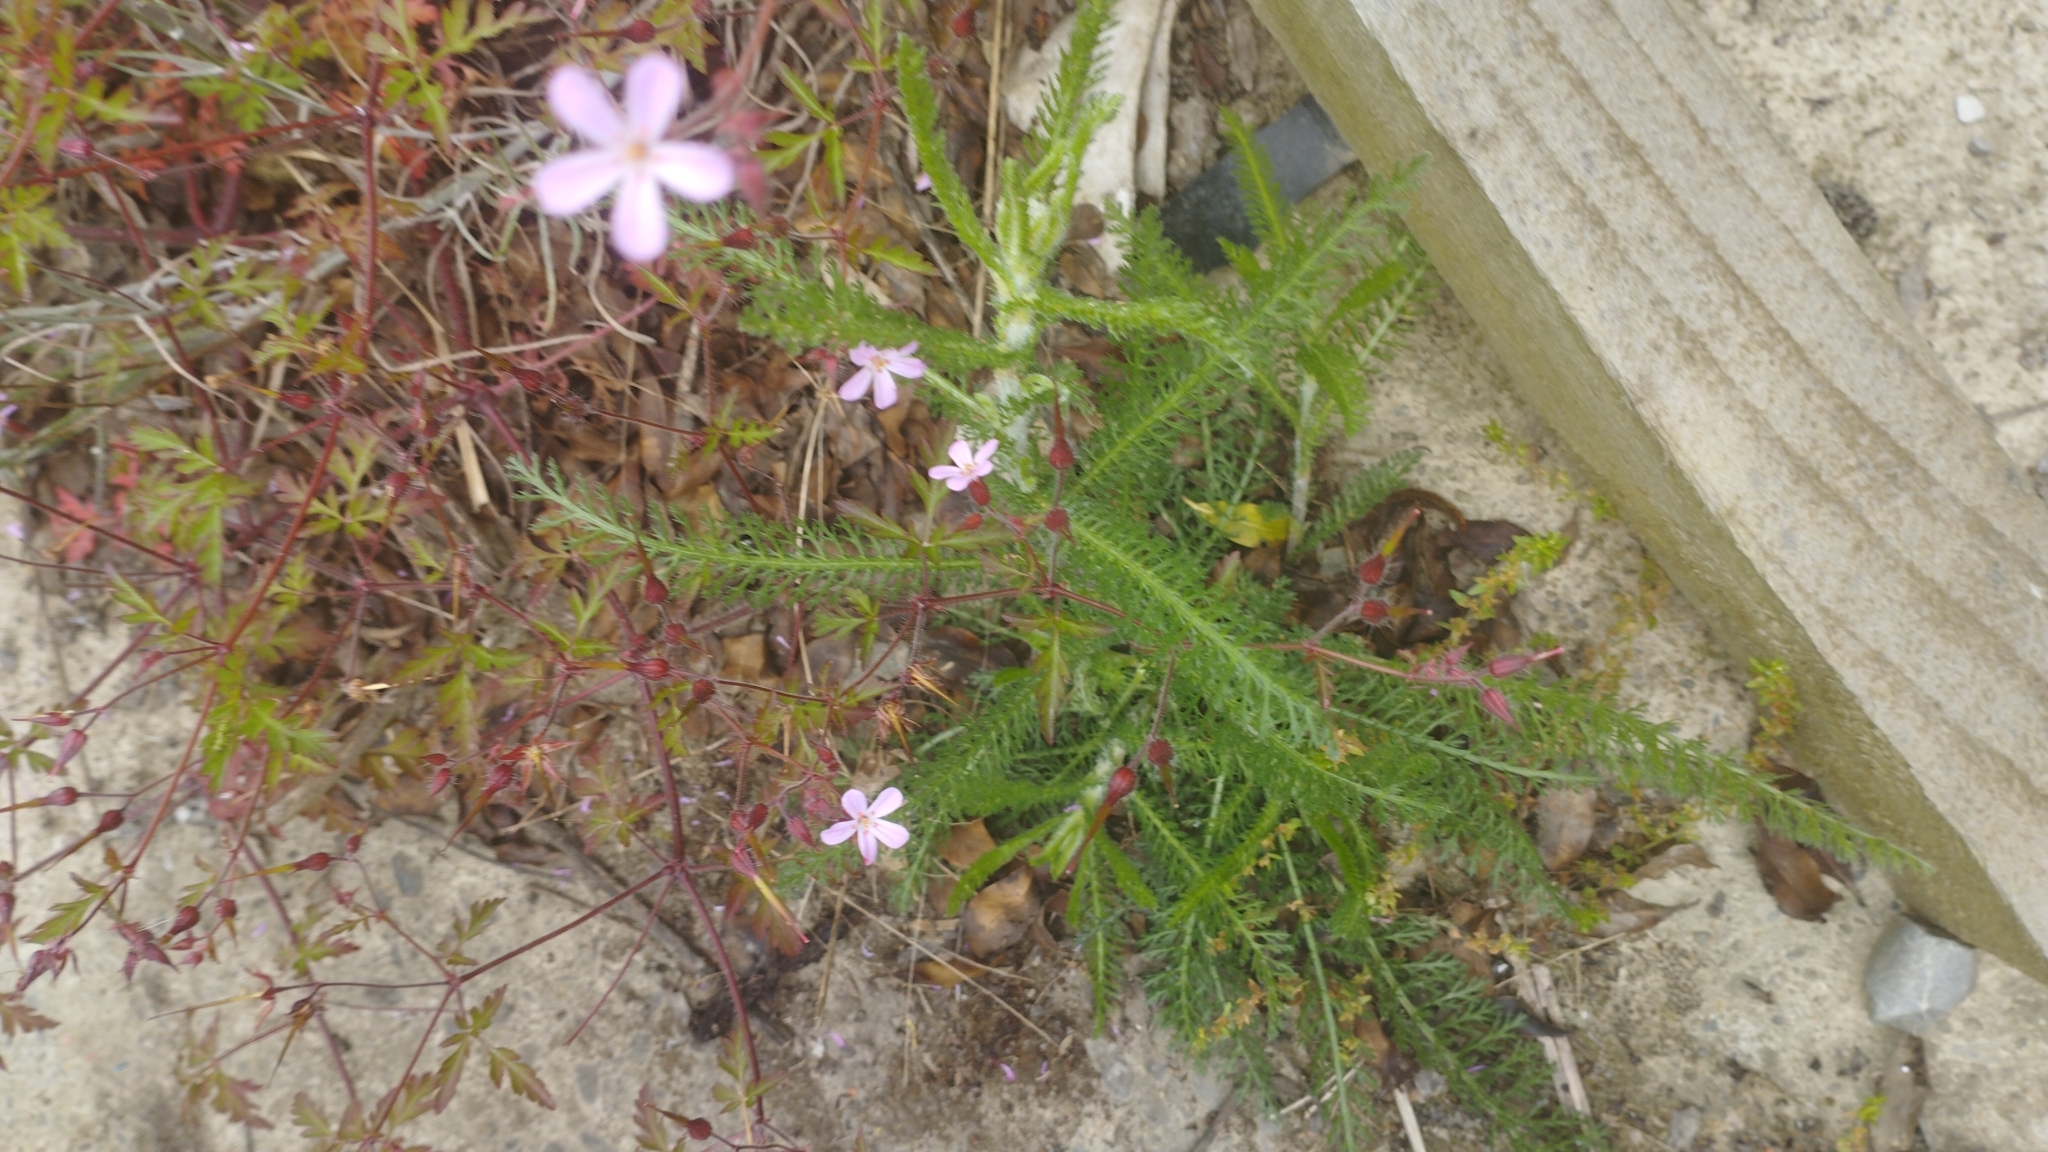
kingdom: Plantae
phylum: Tracheophyta
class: Magnoliopsida
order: Asterales
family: Asteraceae
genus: Achillea
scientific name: Achillea millefolium
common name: Yarrow
